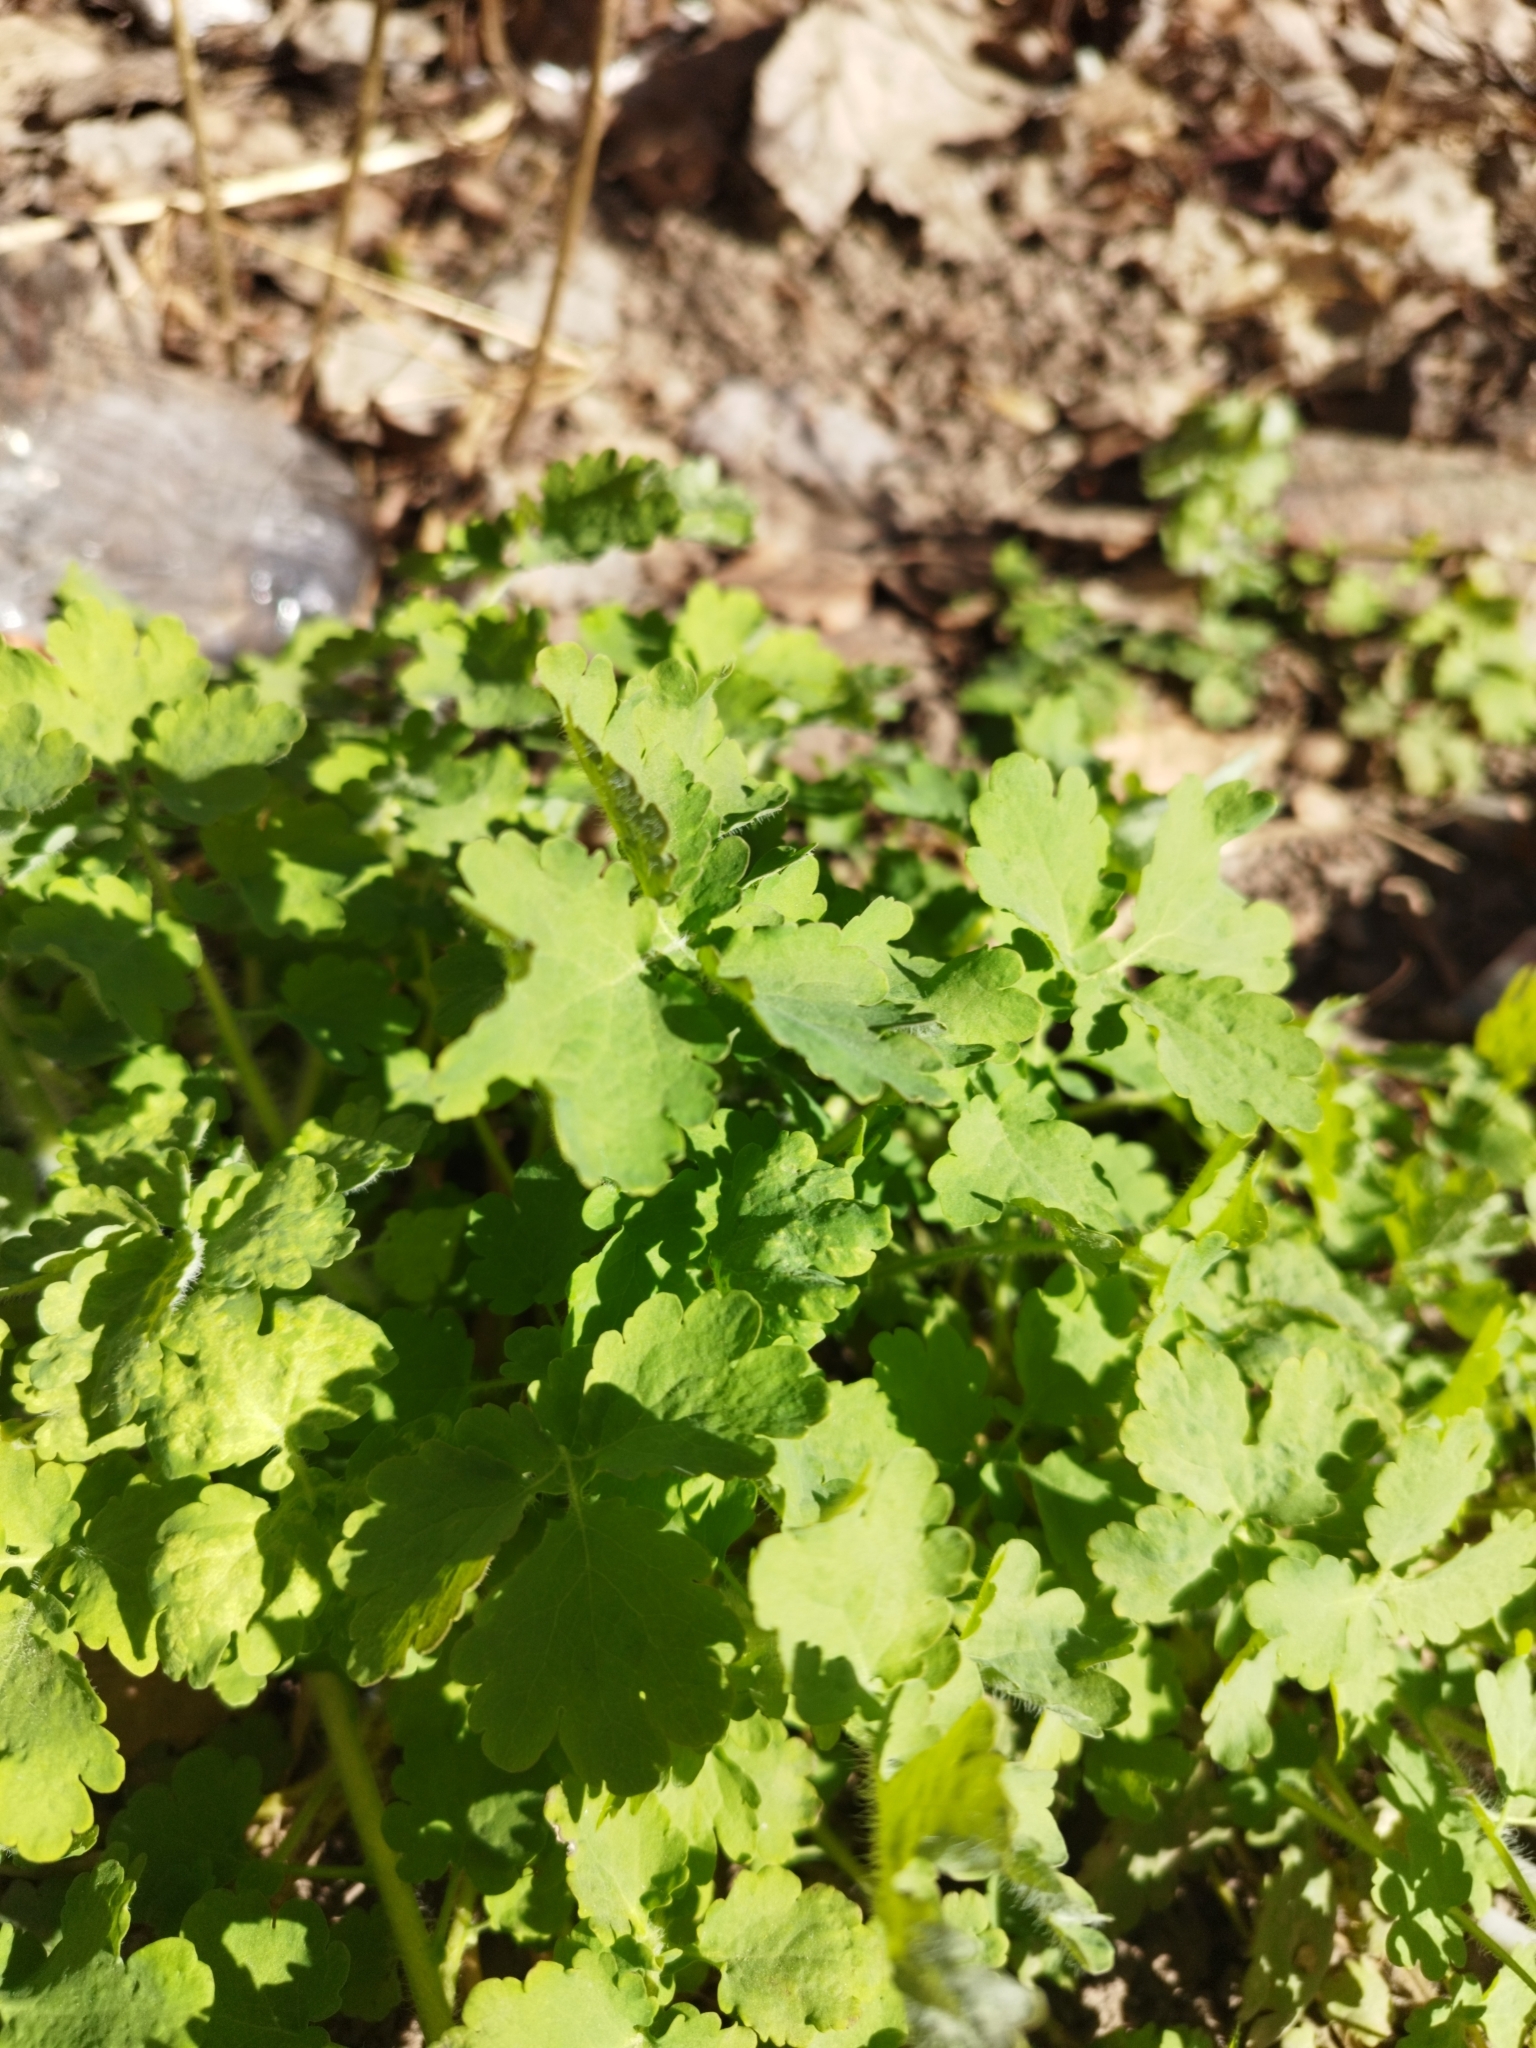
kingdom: Plantae
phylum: Tracheophyta
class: Magnoliopsida
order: Ranunculales
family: Papaveraceae
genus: Chelidonium
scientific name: Chelidonium majus
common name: Greater celandine
